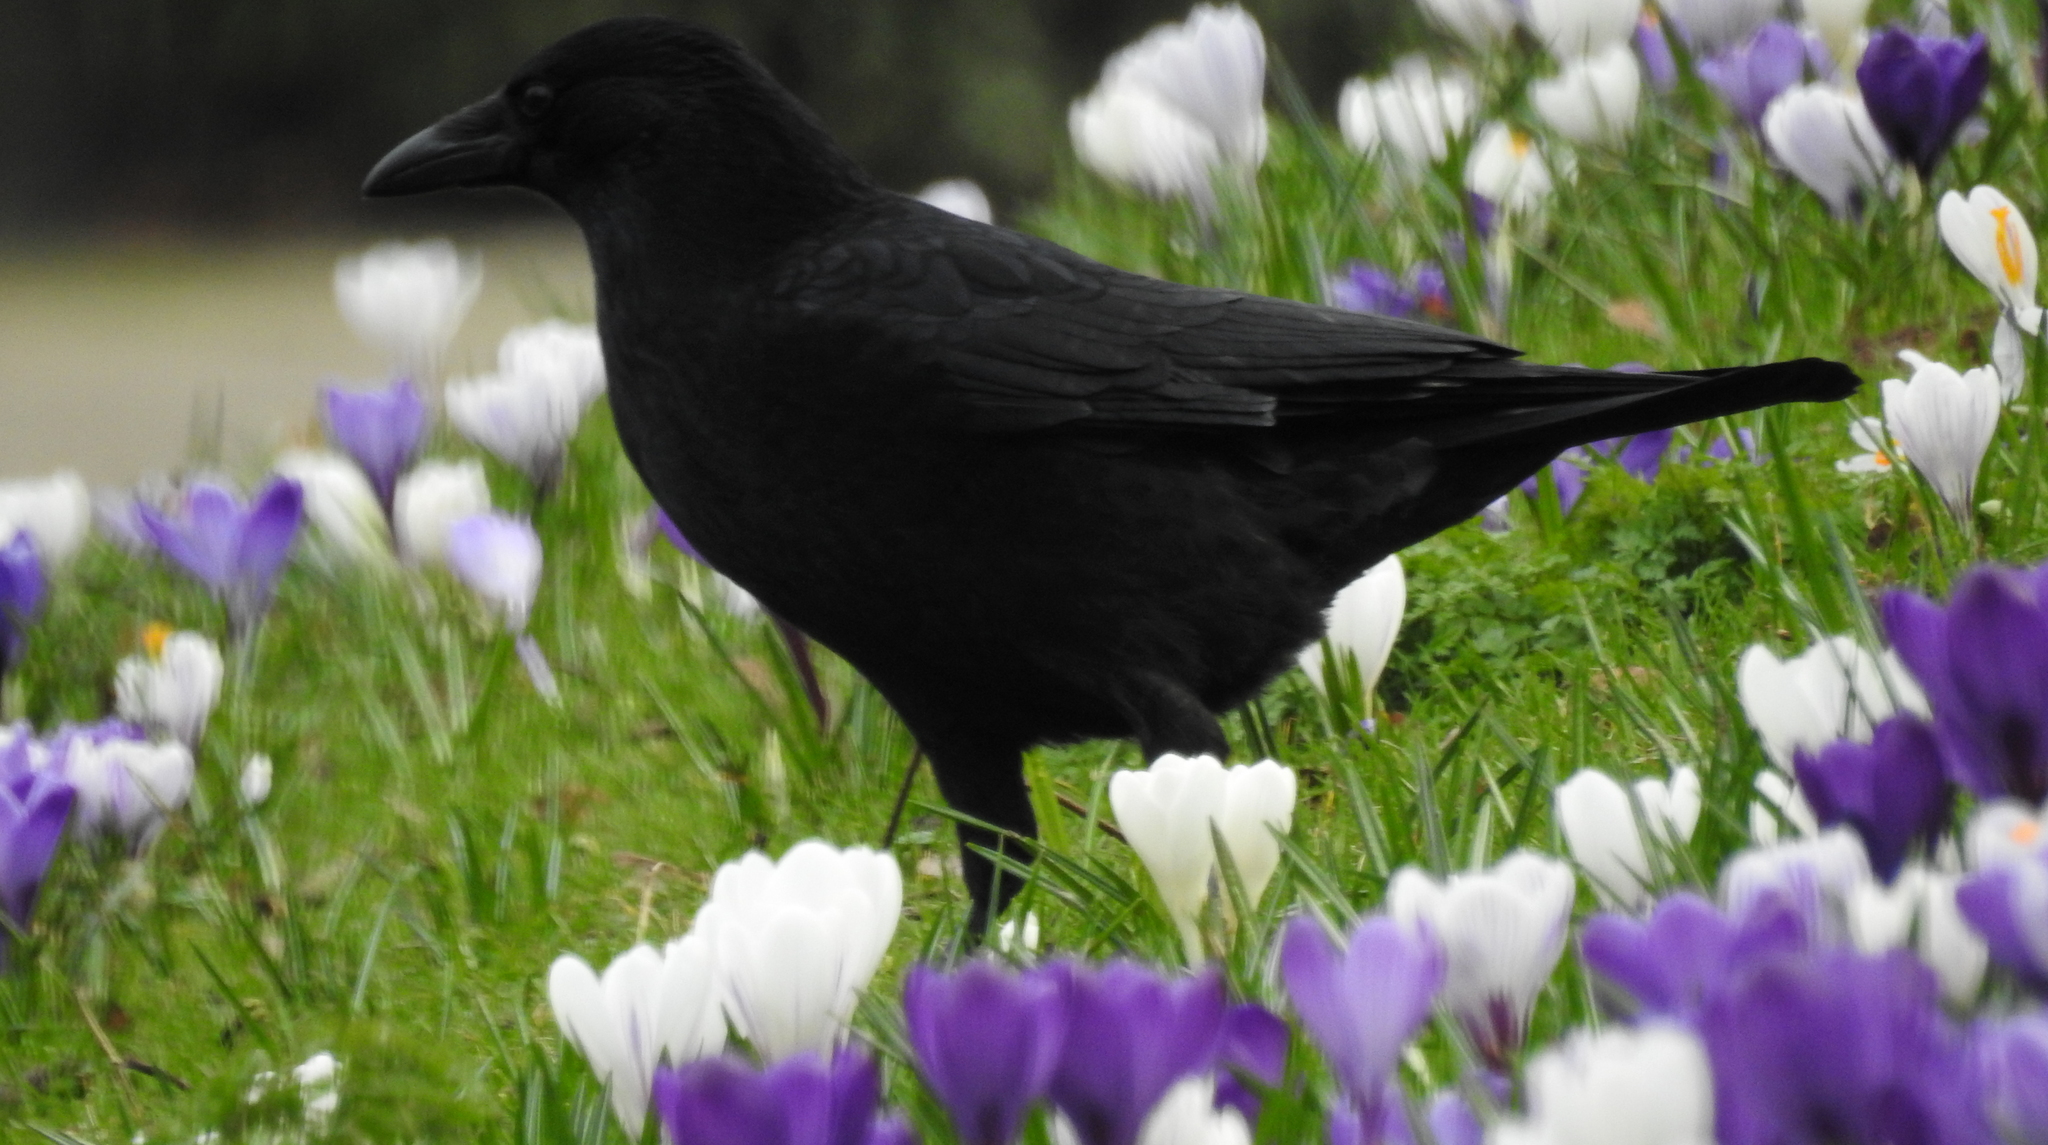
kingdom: Animalia
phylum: Chordata
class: Aves
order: Passeriformes
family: Corvidae
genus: Corvus
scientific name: Corvus corone
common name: Carrion crow
